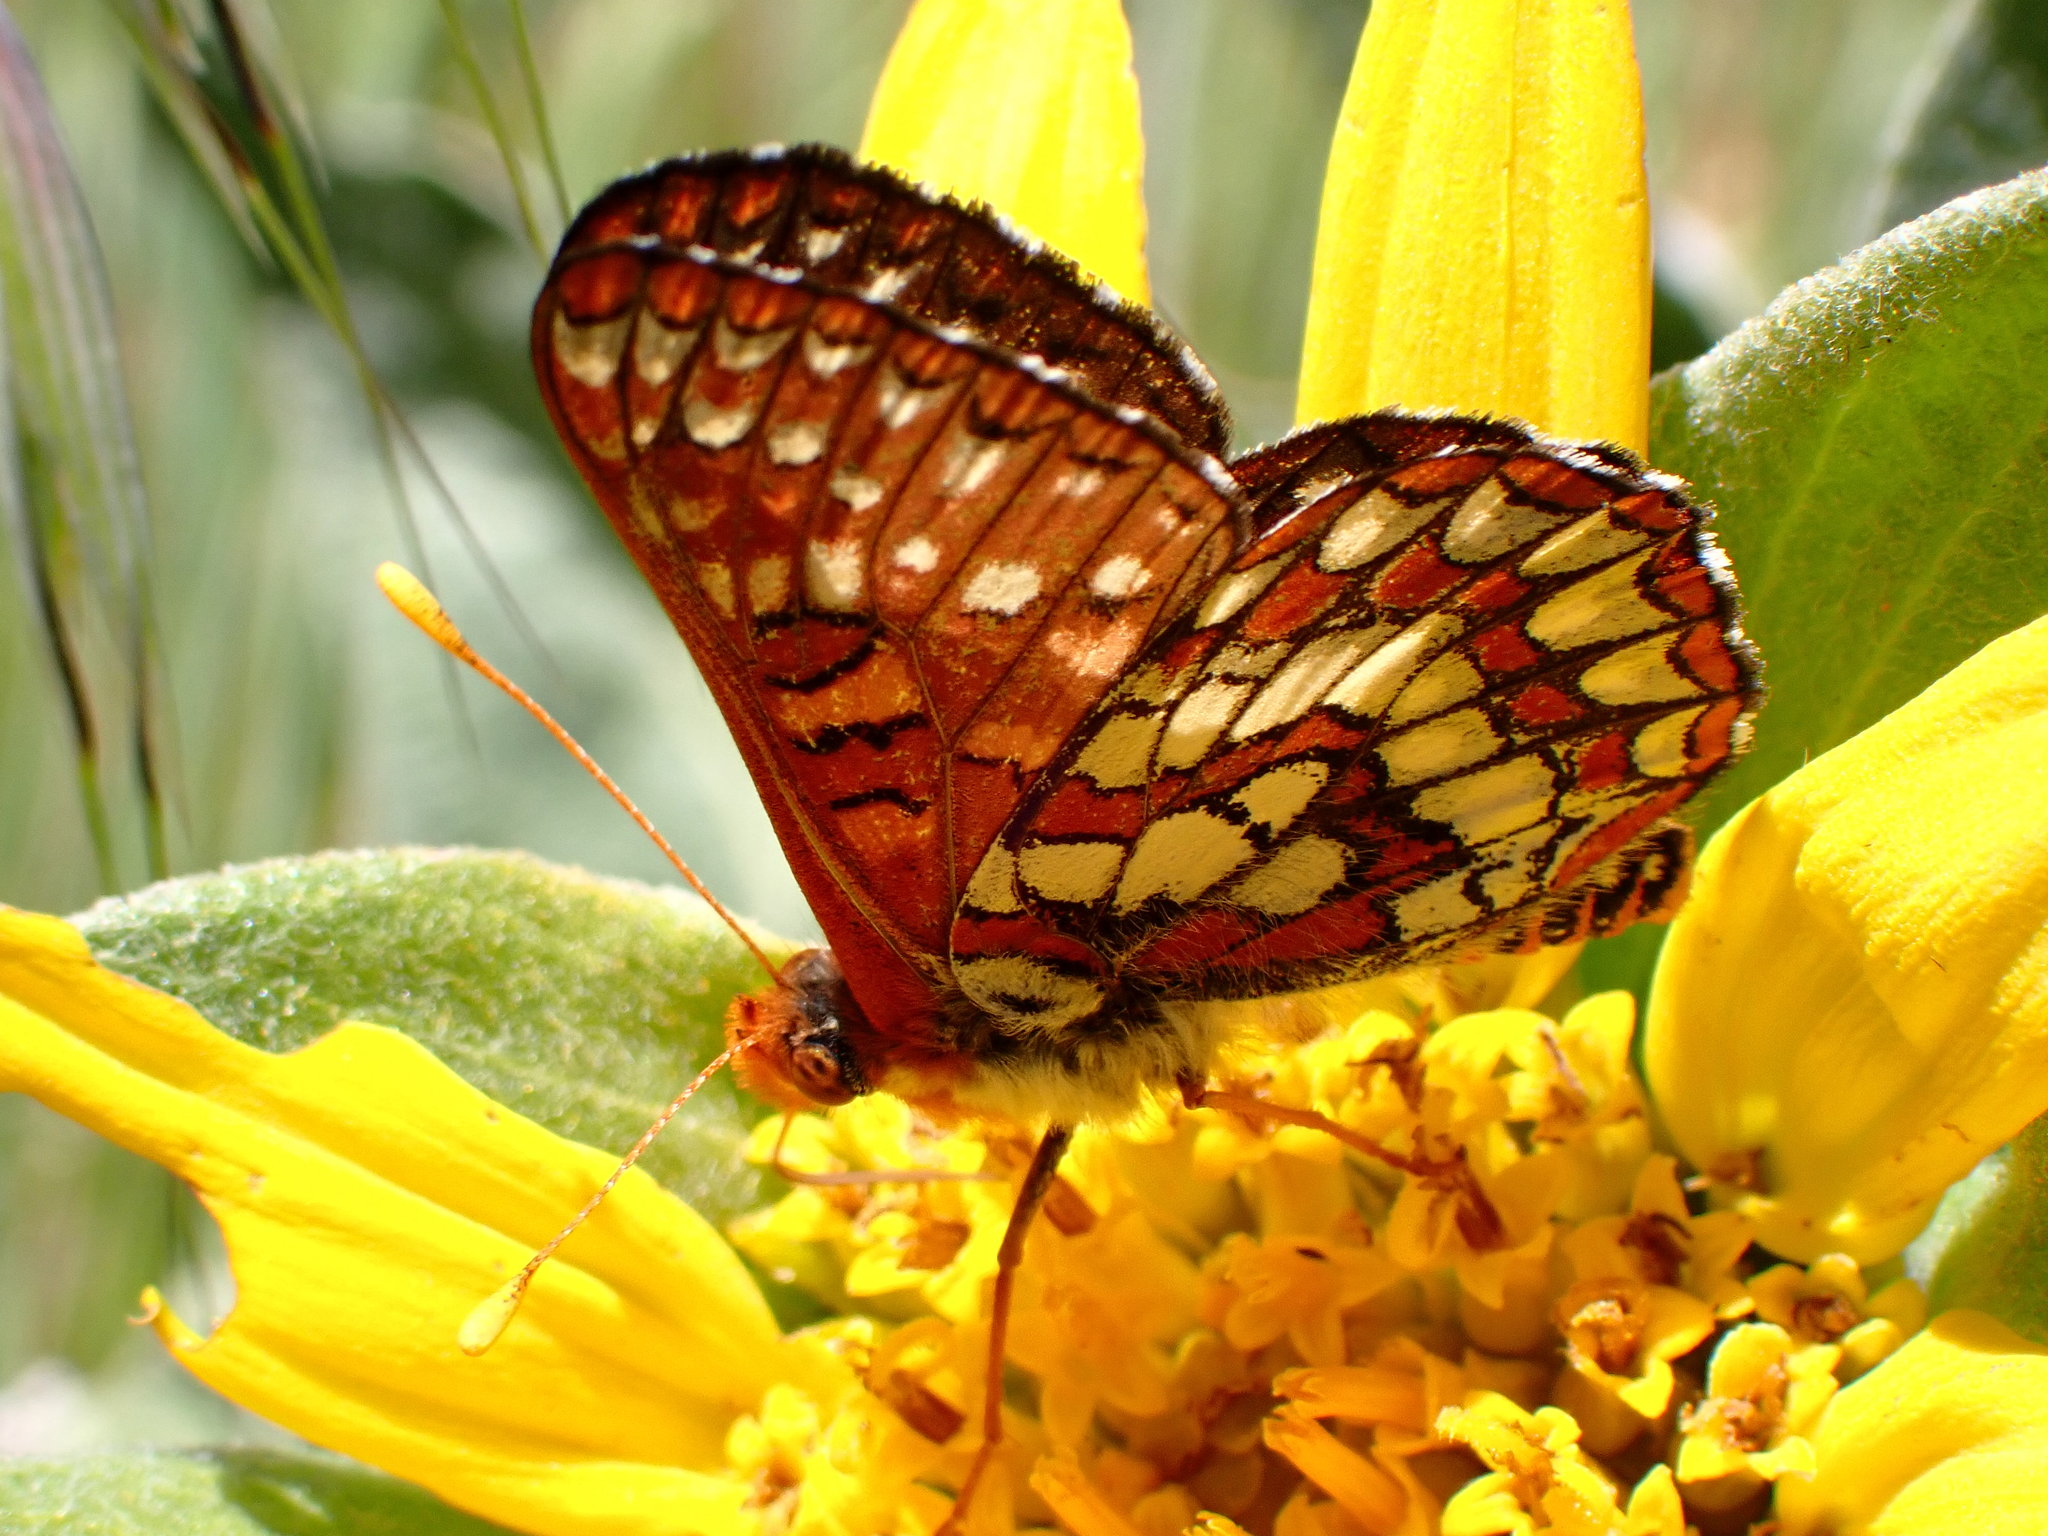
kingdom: Animalia
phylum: Arthropoda
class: Insecta
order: Lepidoptera
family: Nymphalidae
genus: Occidryas
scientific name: Occidryas chalcedona
